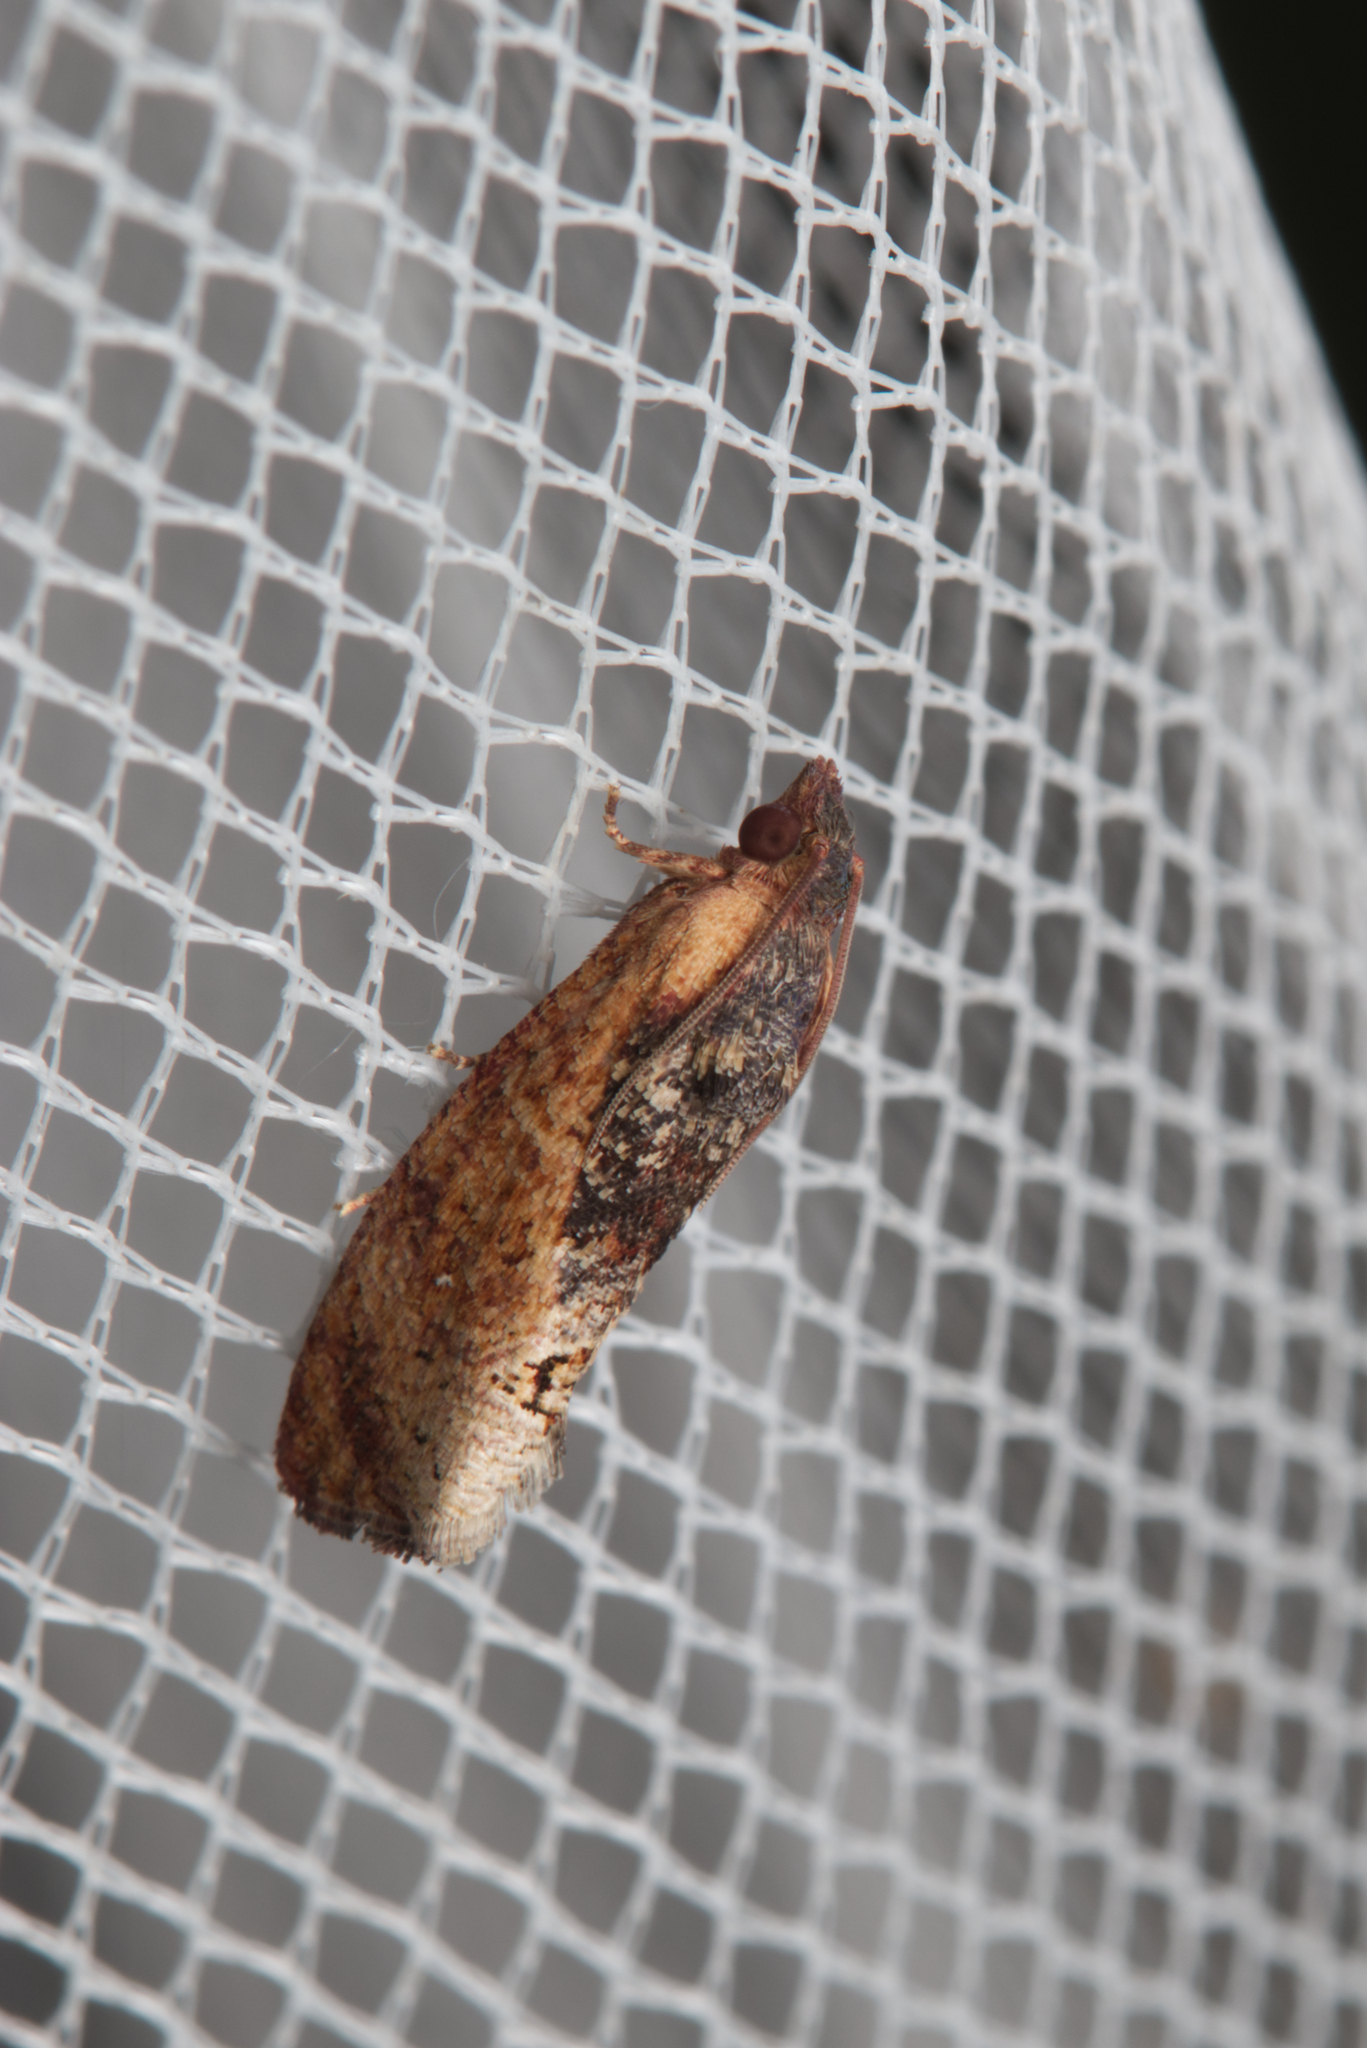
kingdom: Animalia
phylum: Arthropoda
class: Insecta
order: Lepidoptera
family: Tortricidae
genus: Cryptophlebia
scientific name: Cryptophlebia ombrodelta
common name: Litchi fruit moth
